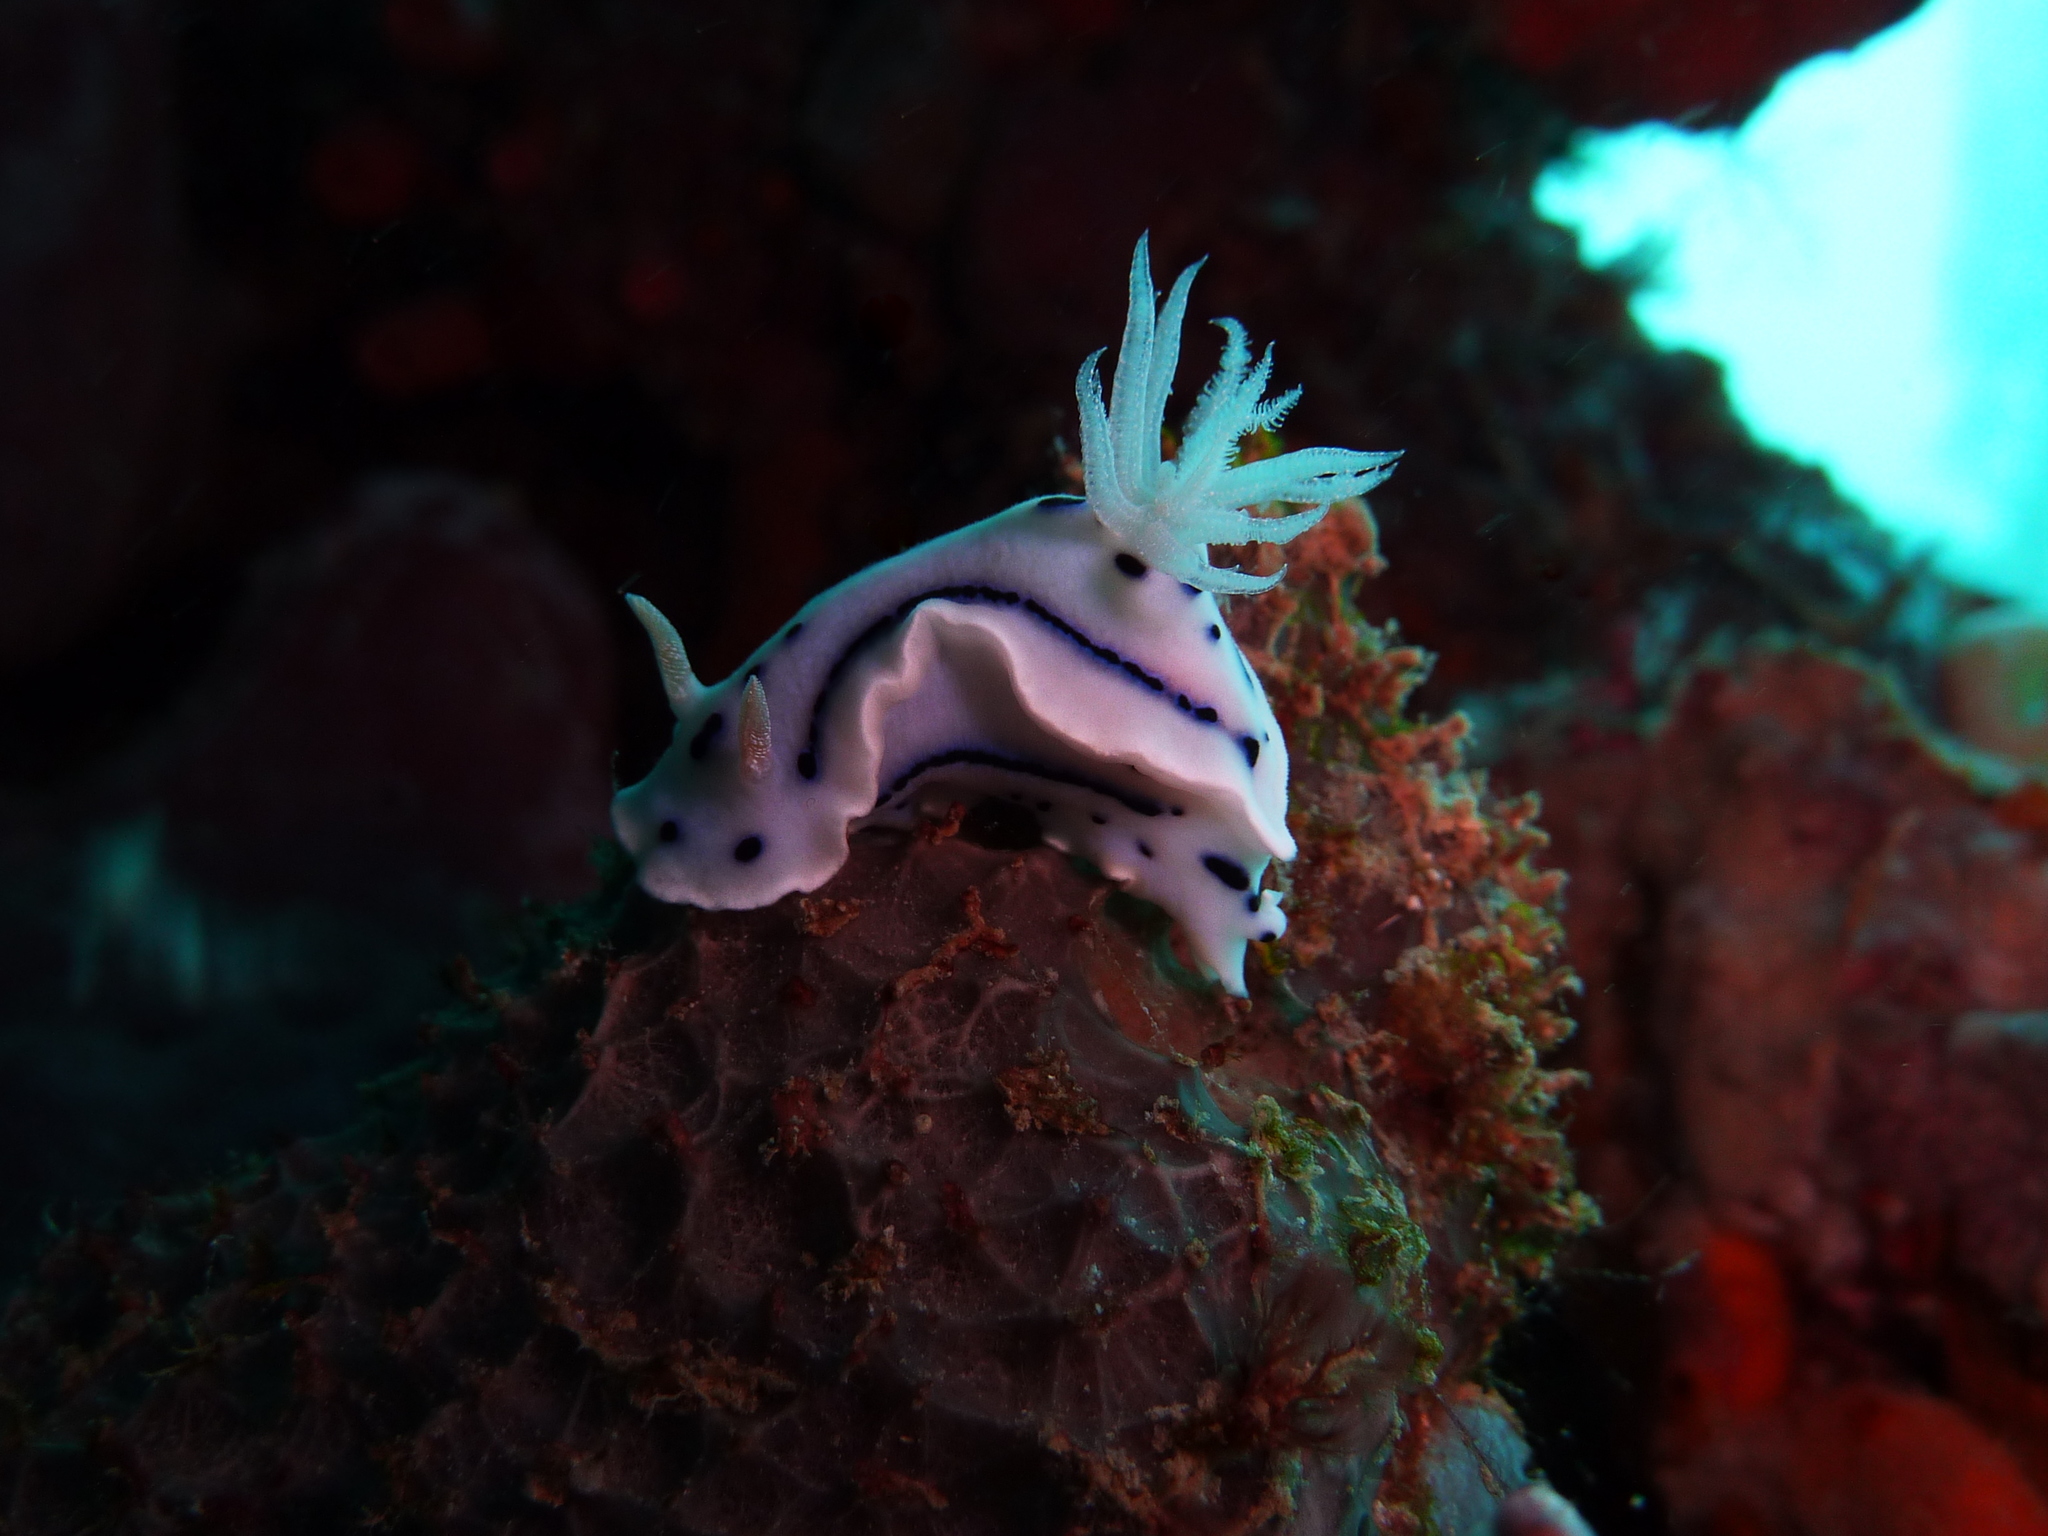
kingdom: Animalia
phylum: Mollusca
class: Gastropoda
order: Nudibranchia
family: Chromodorididae
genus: Chromodoris
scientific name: Chromodoris willani
